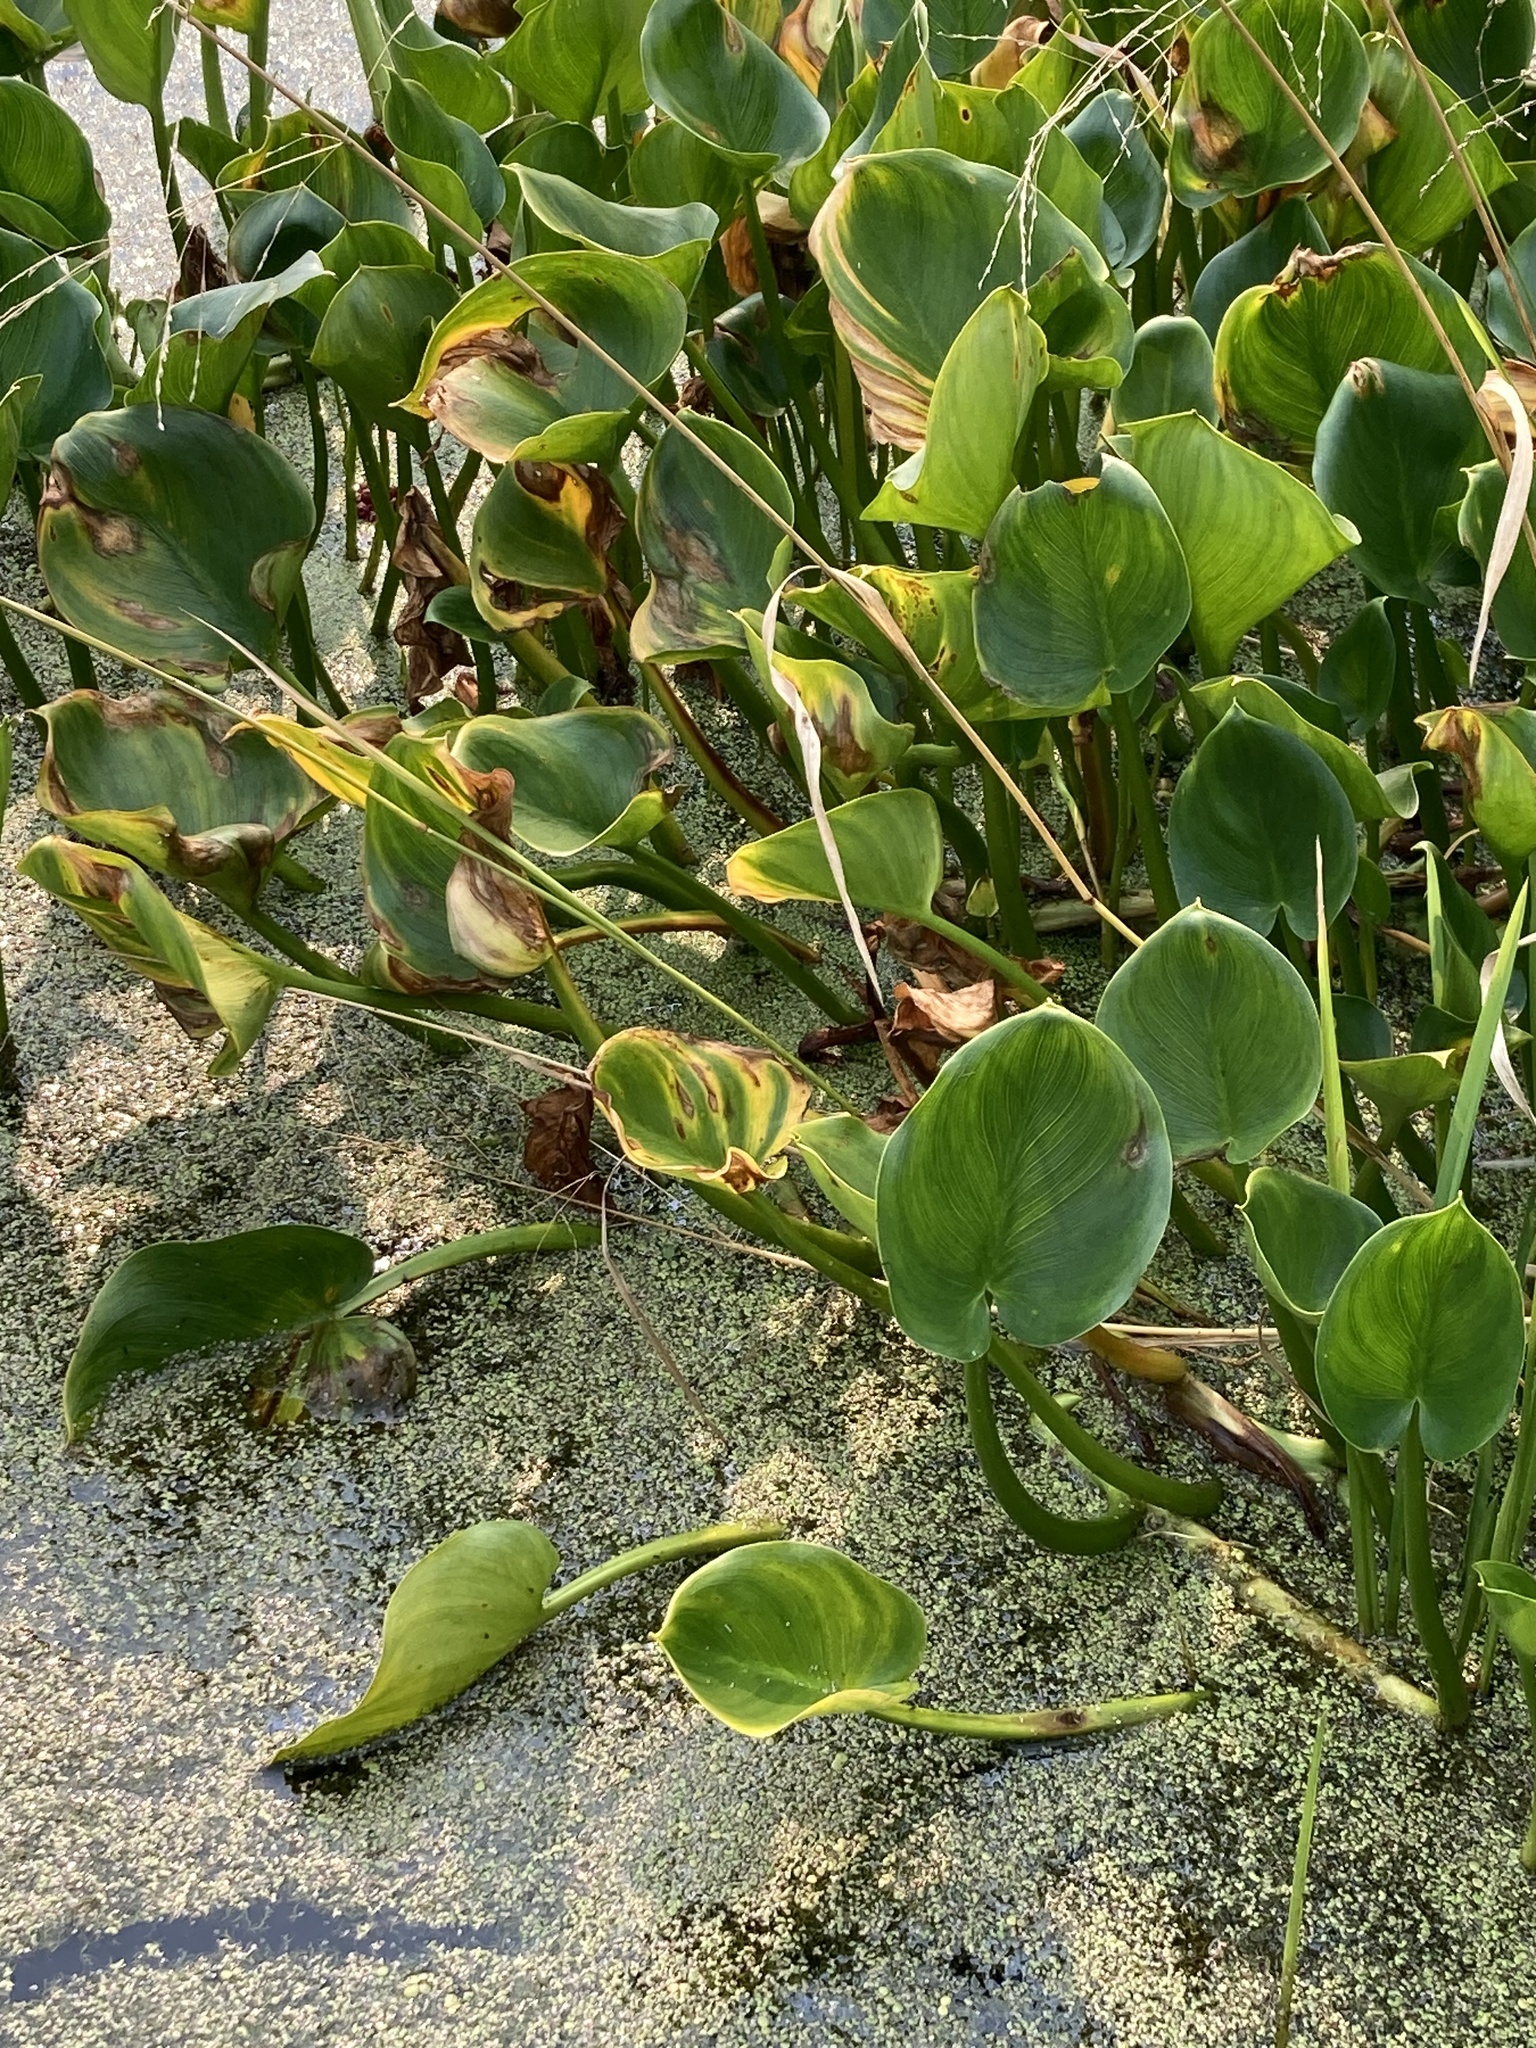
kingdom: Plantae
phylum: Tracheophyta
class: Liliopsida
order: Alismatales
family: Araceae
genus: Calla
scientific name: Calla palustris
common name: Bog arum
